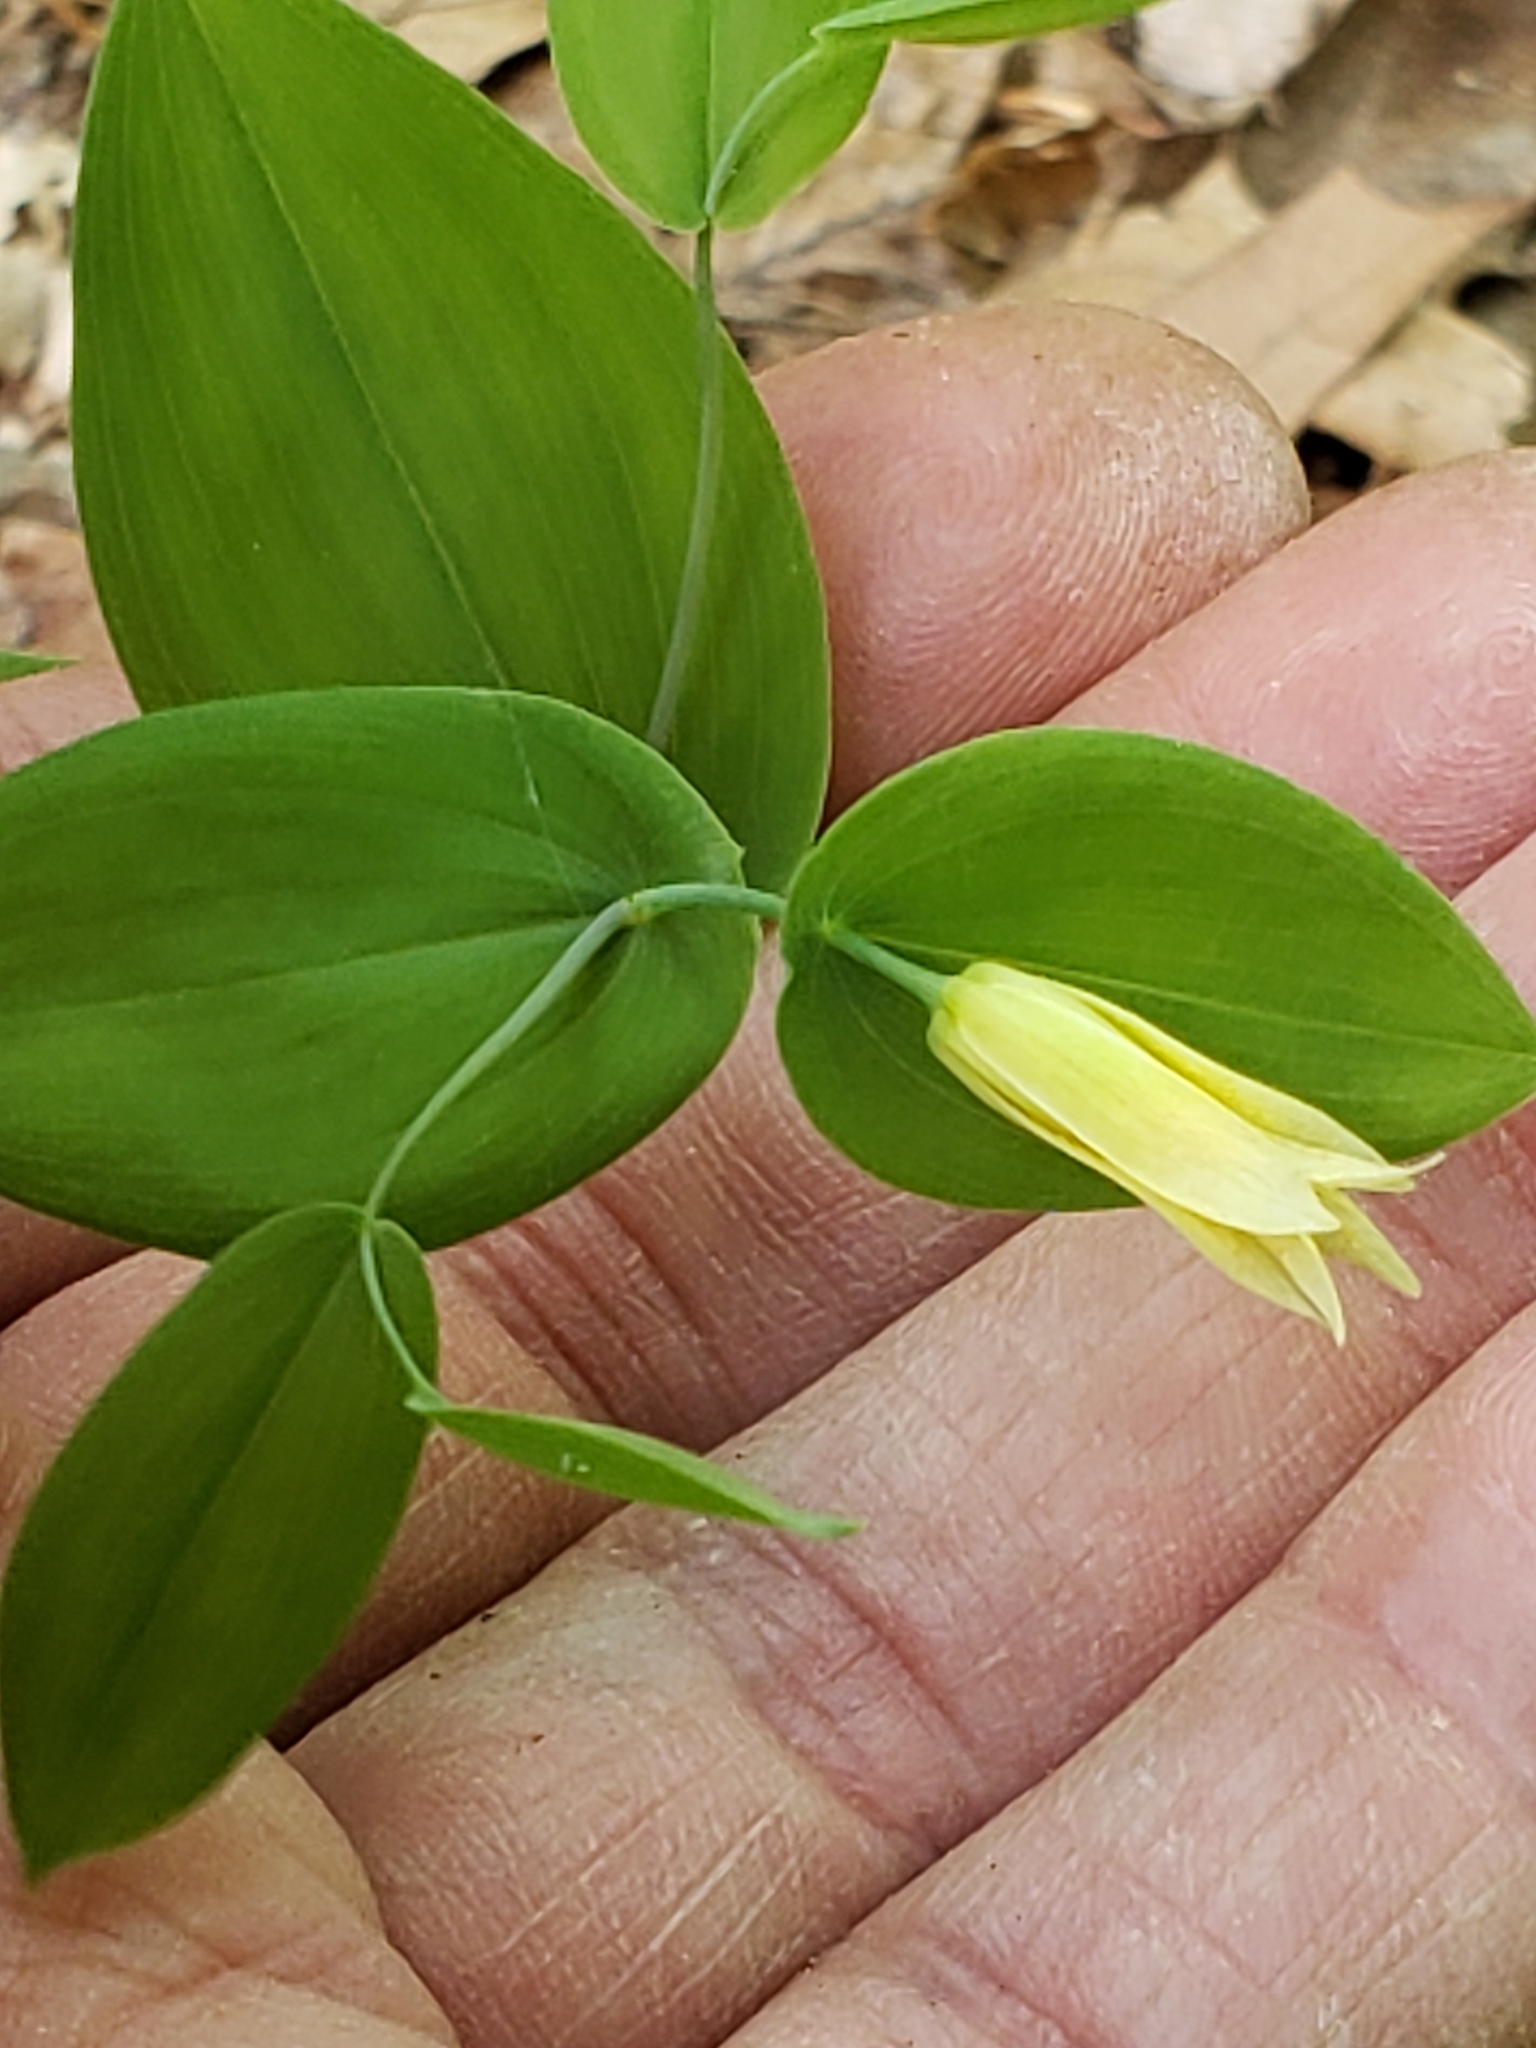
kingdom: Plantae
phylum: Tracheophyta
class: Liliopsida
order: Liliales
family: Colchicaceae
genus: Uvularia
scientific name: Uvularia perfoliata
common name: Perfoliate bellwort
